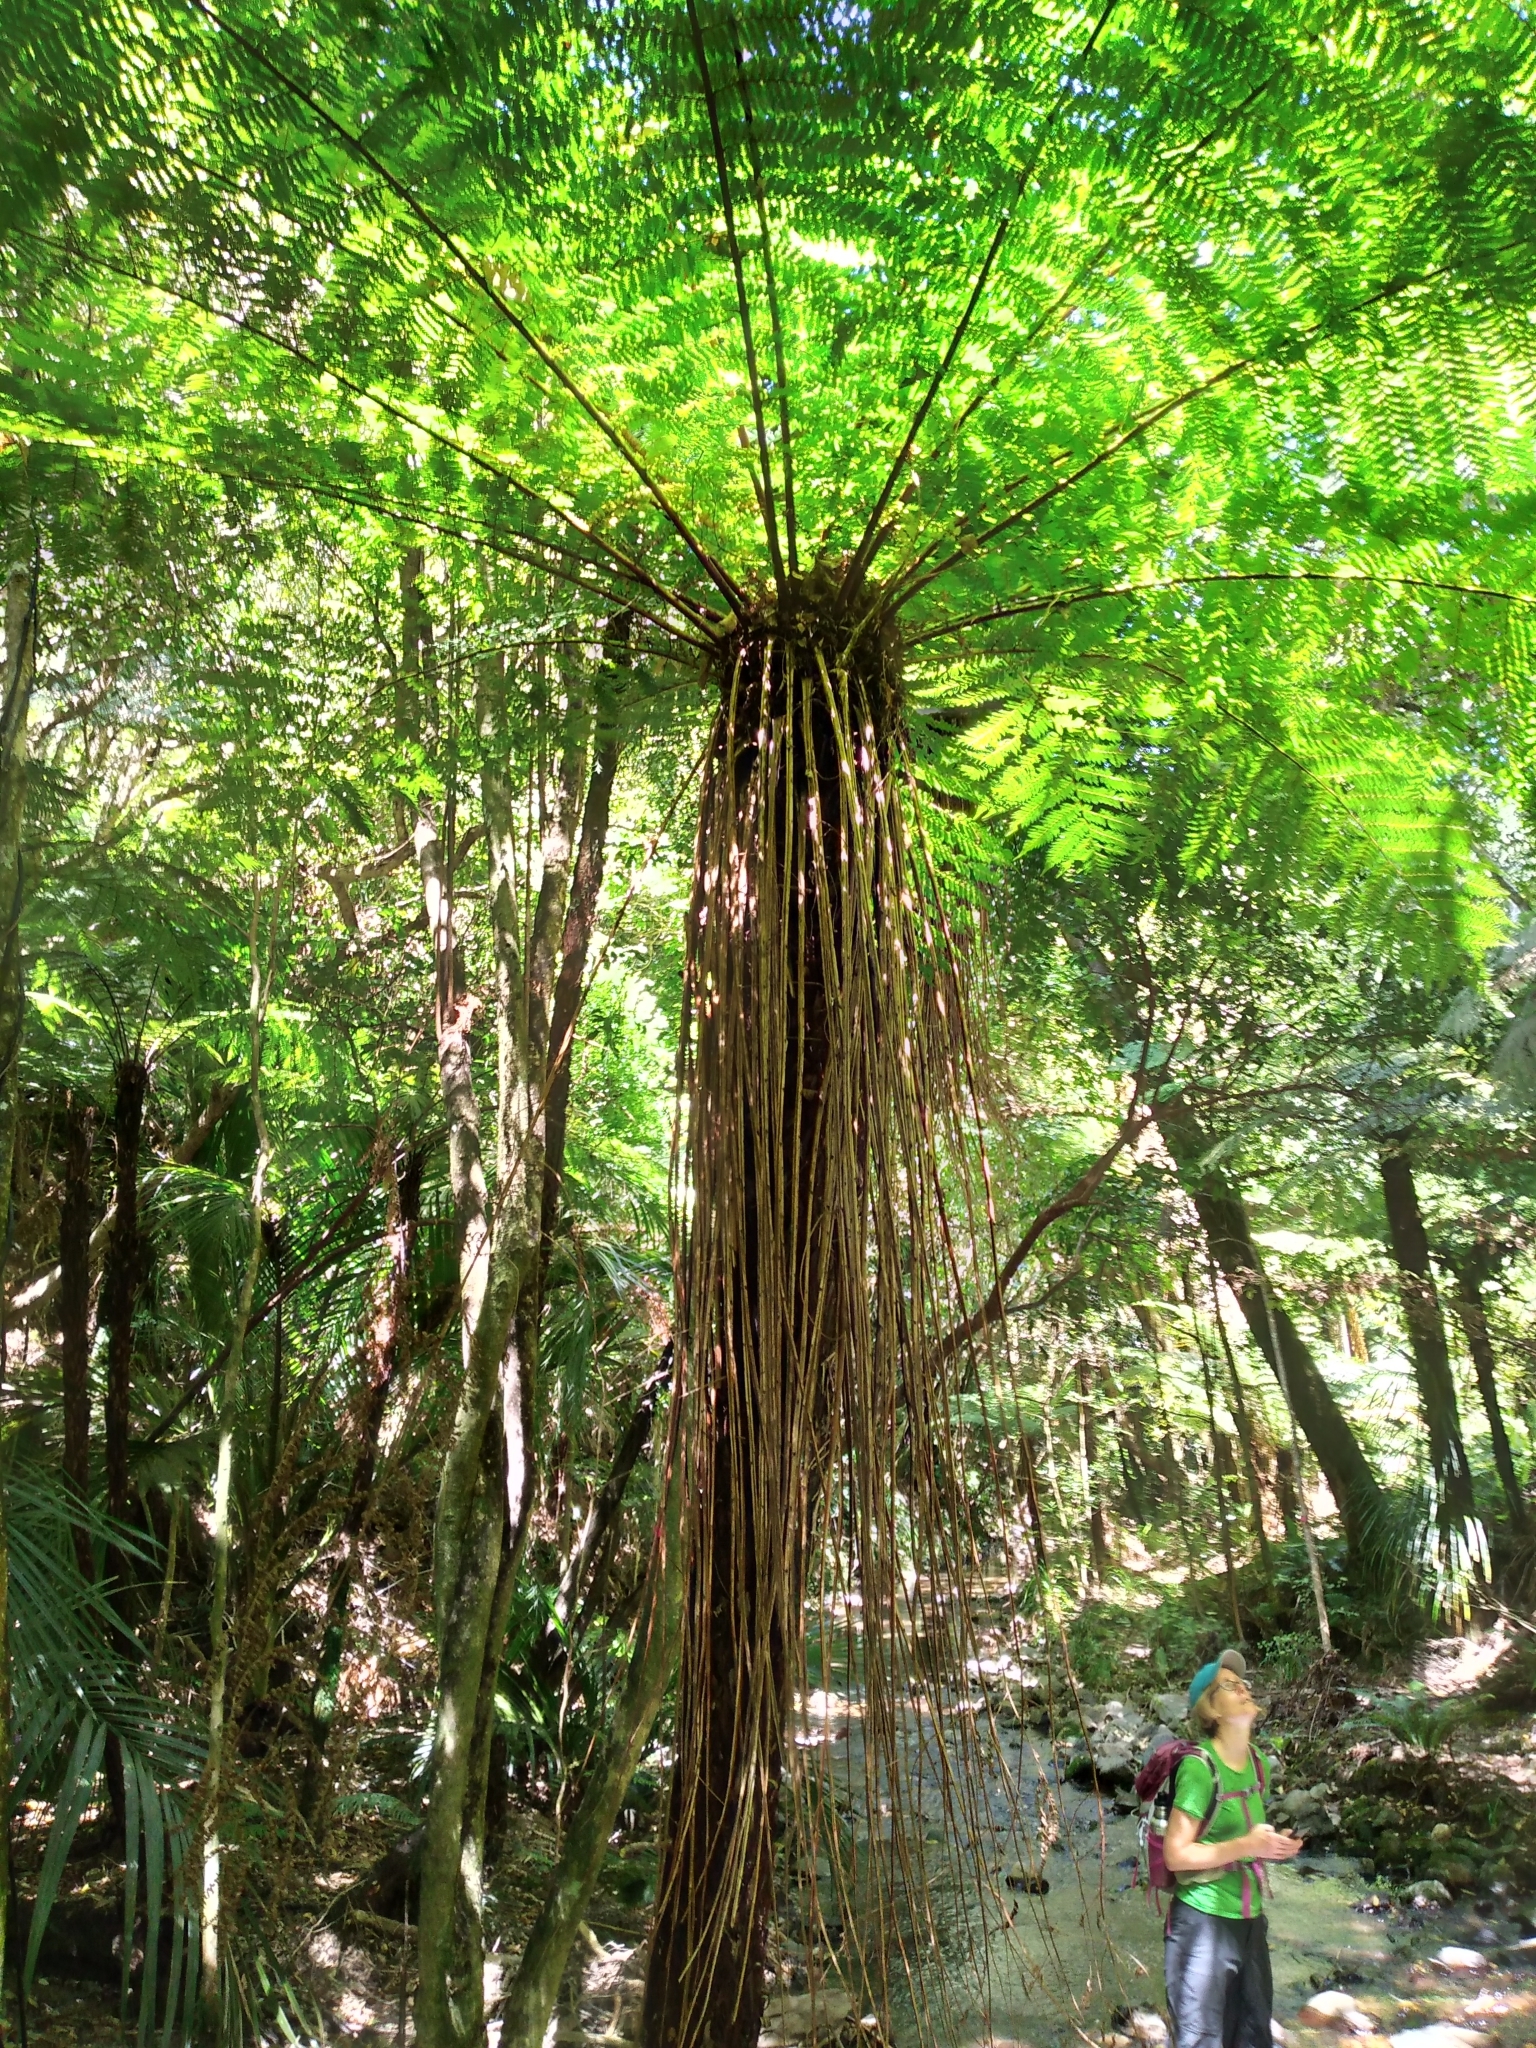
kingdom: Plantae
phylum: Tracheophyta
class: Polypodiopsida
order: Cyatheales
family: Cyatheaceae
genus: Alsophila
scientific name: Alsophila smithii
